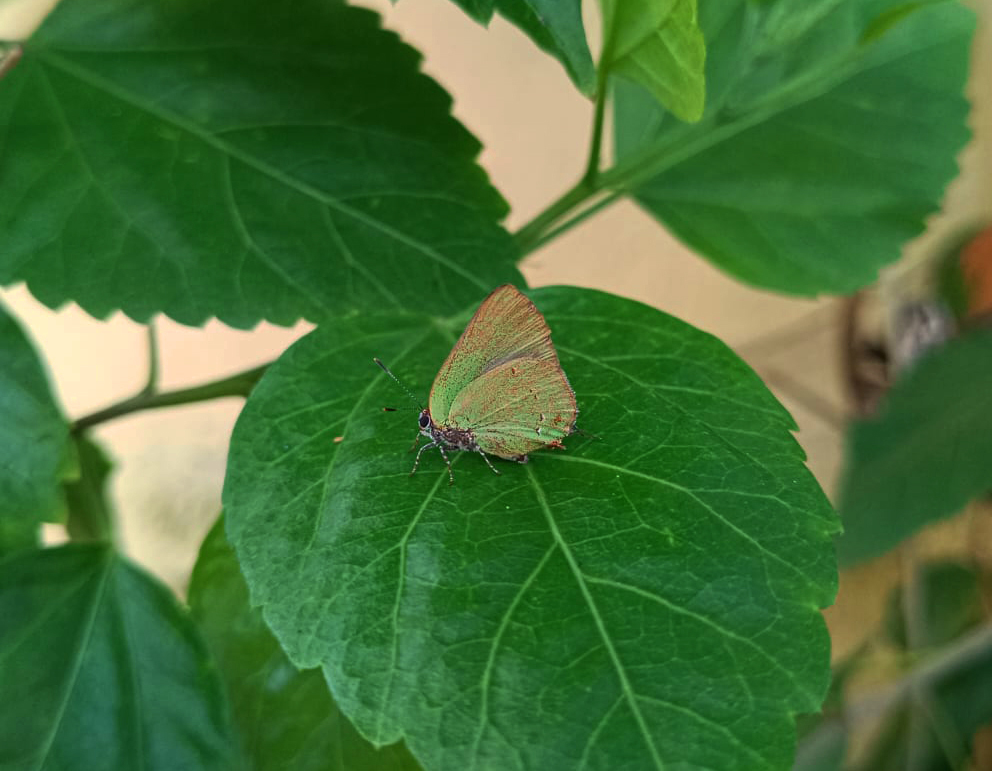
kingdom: Animalia
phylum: Arthropoda
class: Insecta
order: Lepidoptera
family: Lycaenidae
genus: Thecla
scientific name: Thecla herodotus
